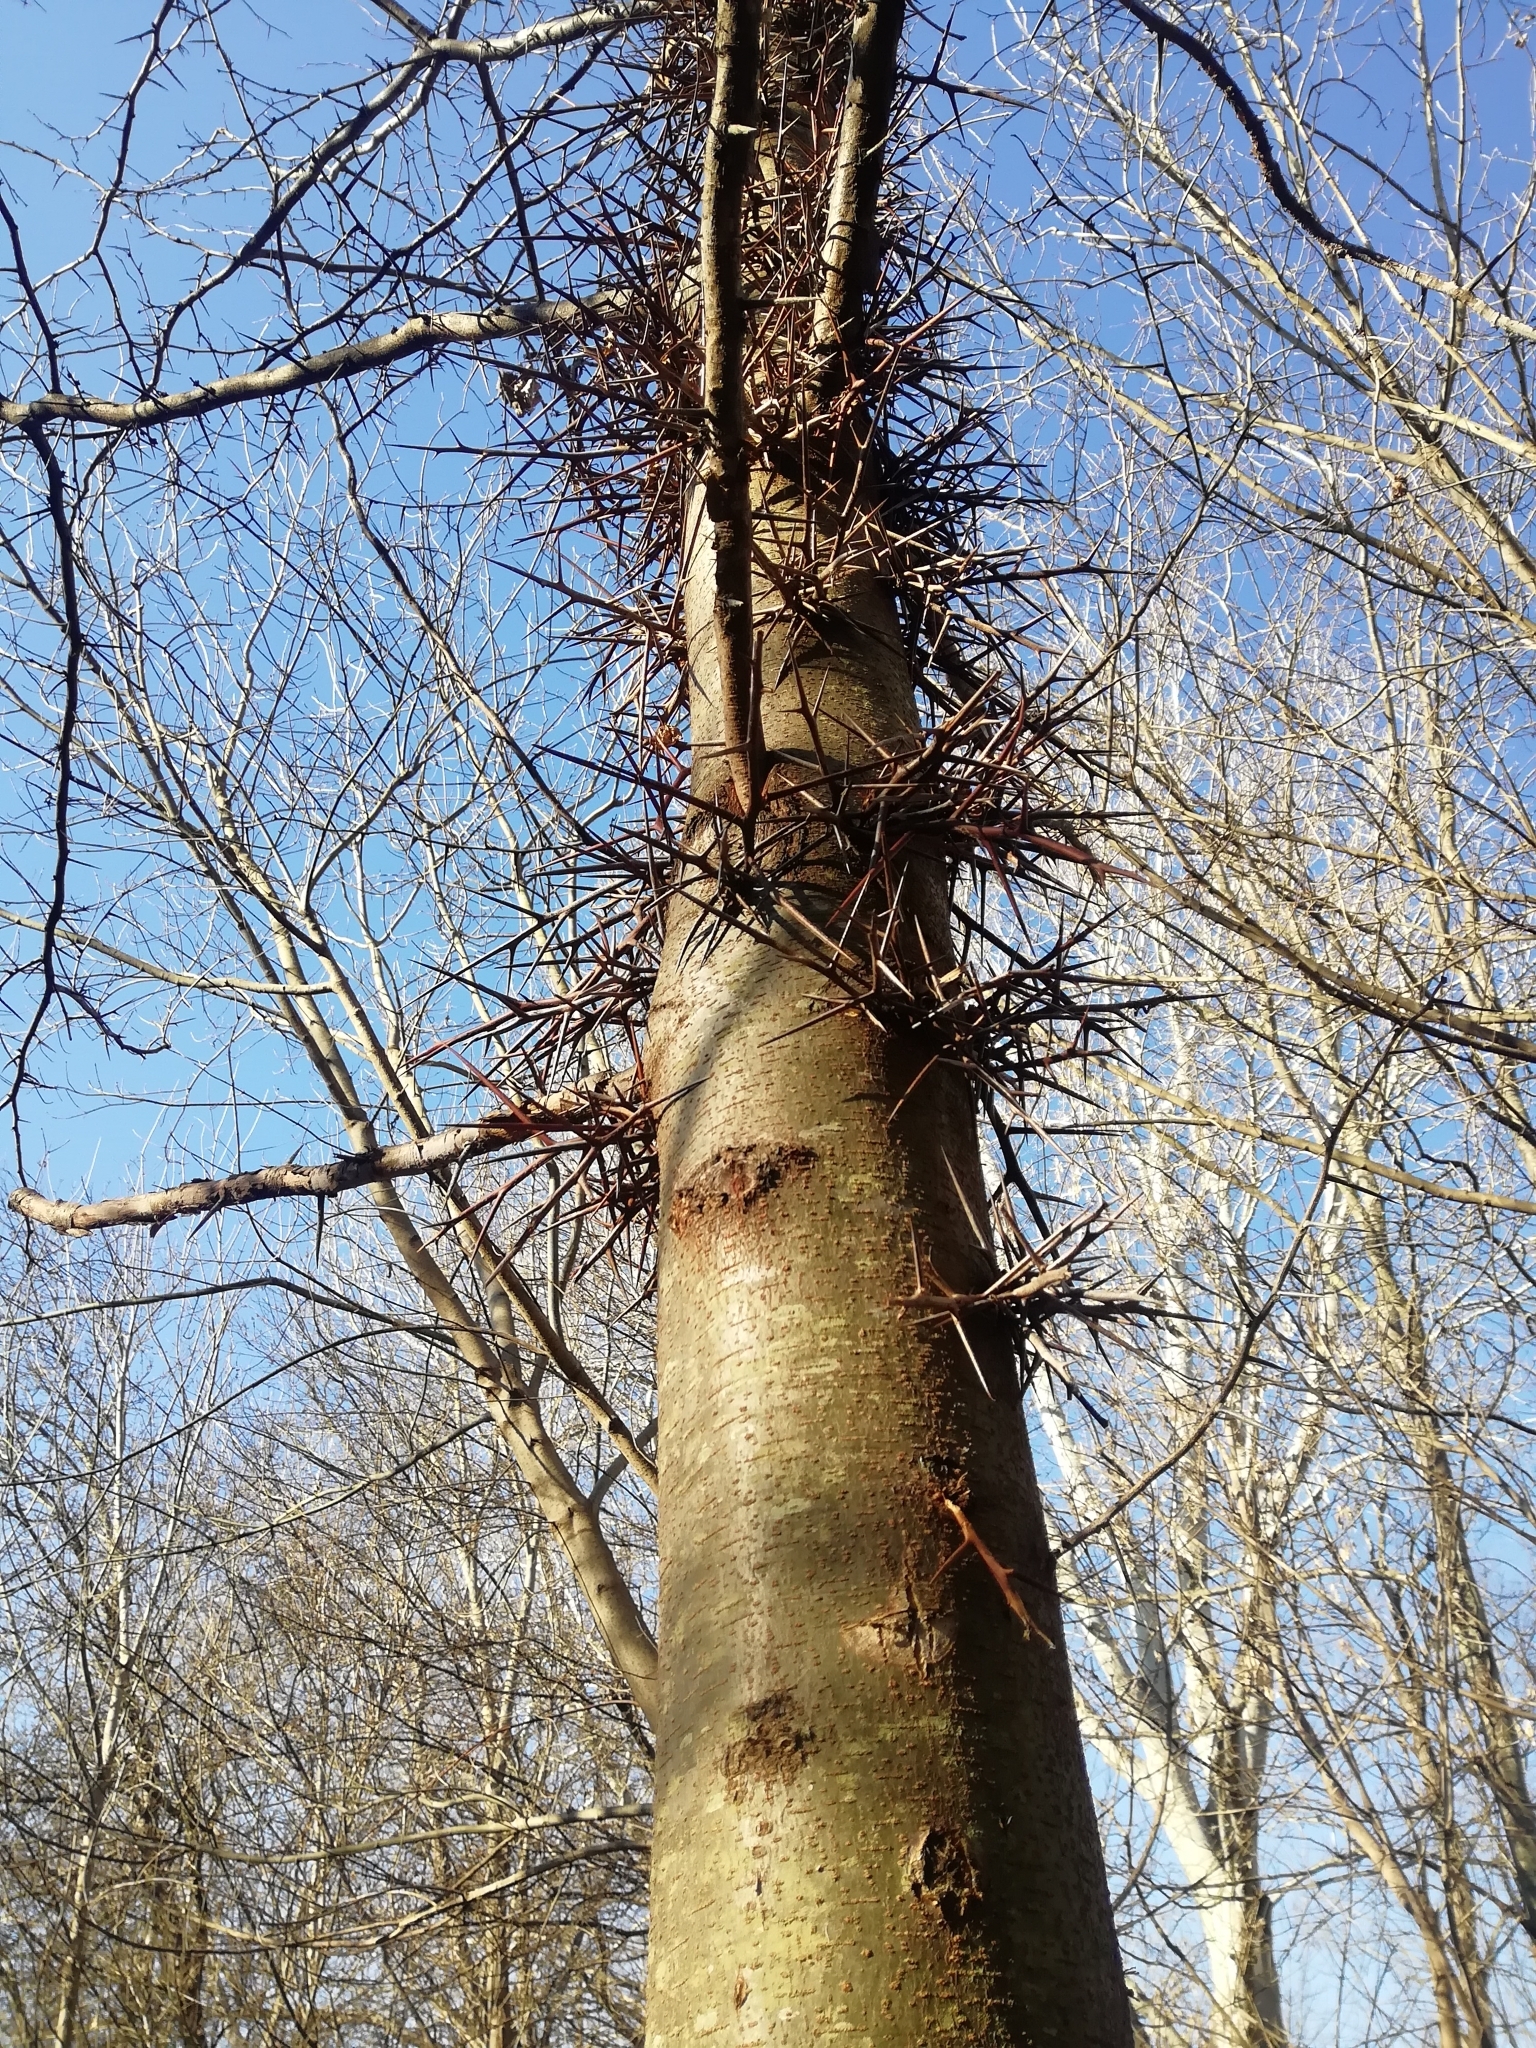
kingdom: Plantae
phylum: Tracheophyta
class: Magnoliopsida
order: Fabales
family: Fabaceae
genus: Gleditsia
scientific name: Gleditsia triacanthos
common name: Common honeylocust
